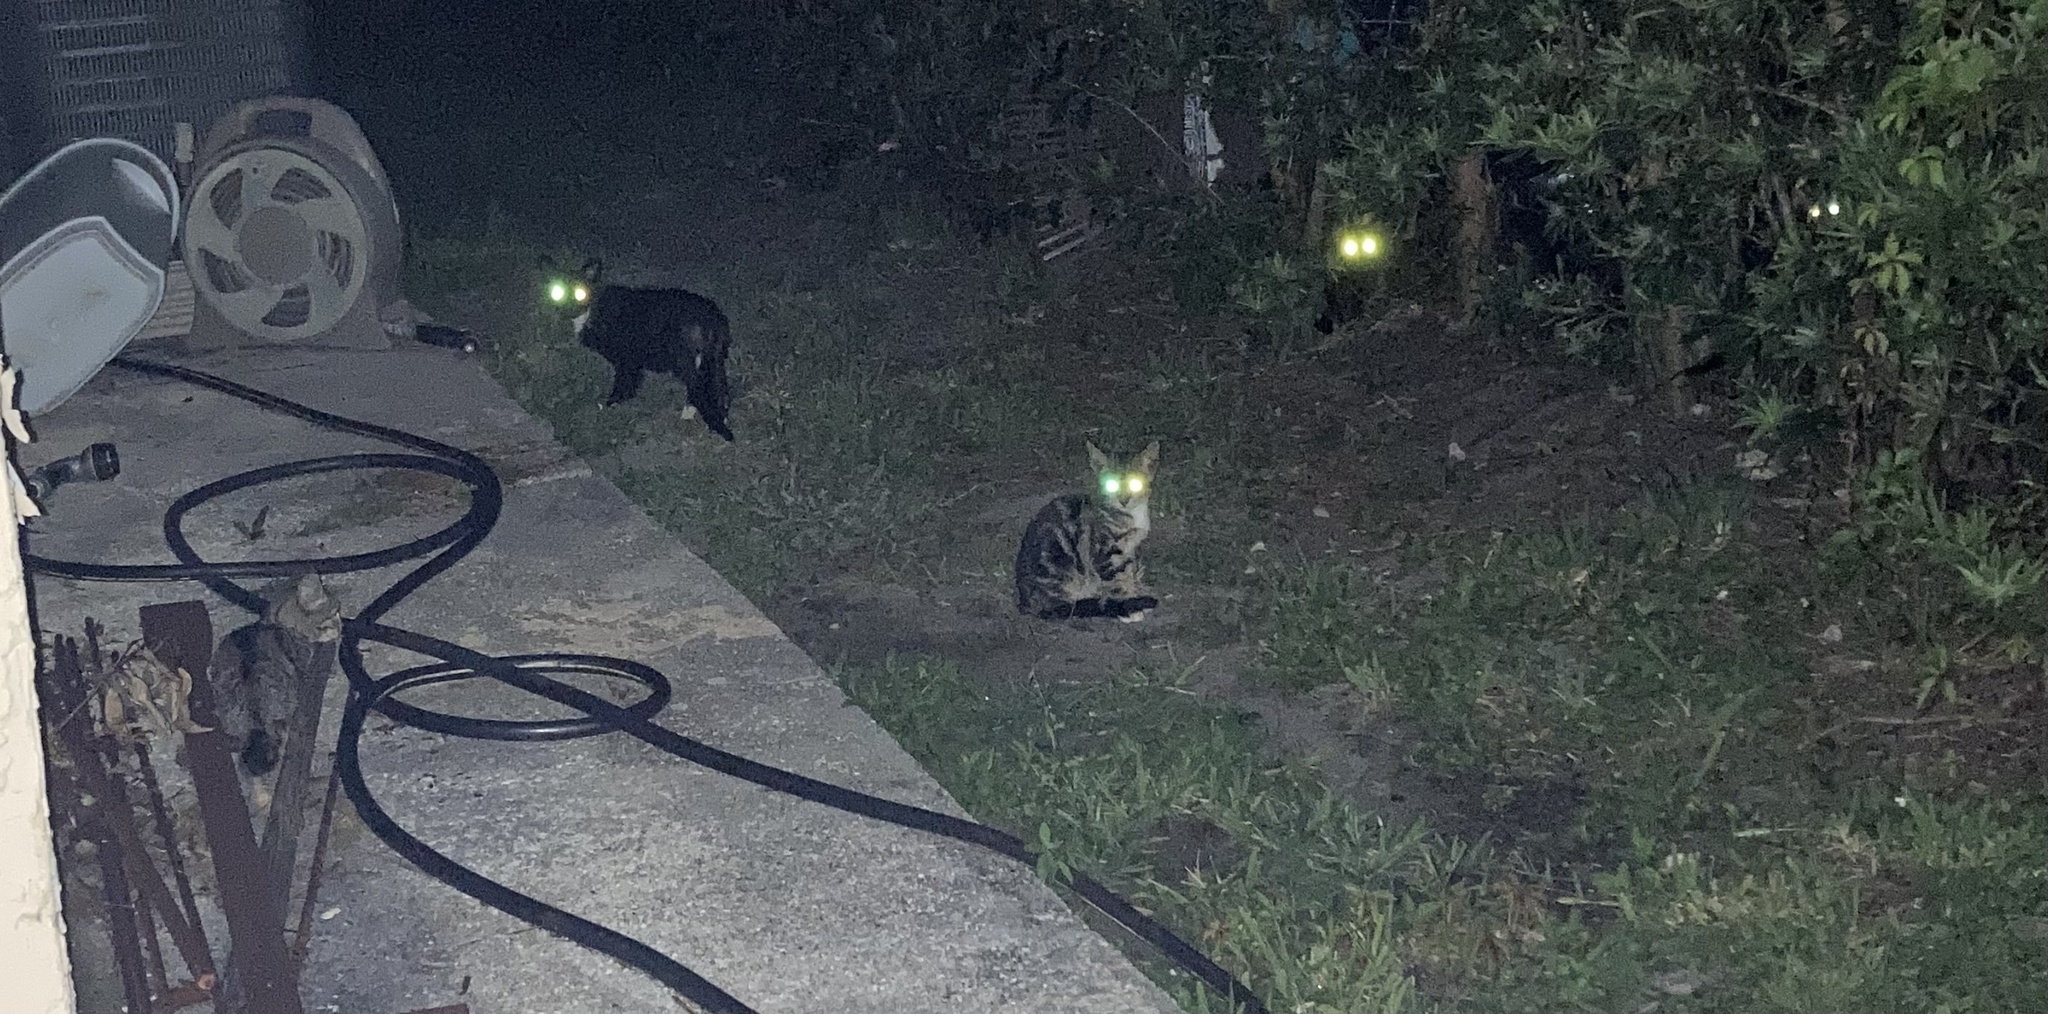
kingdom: Animalia
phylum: Chordata
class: Mammalia
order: Carnivora
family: Felidae
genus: Felis
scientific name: Felis catus
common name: Domestic cat
